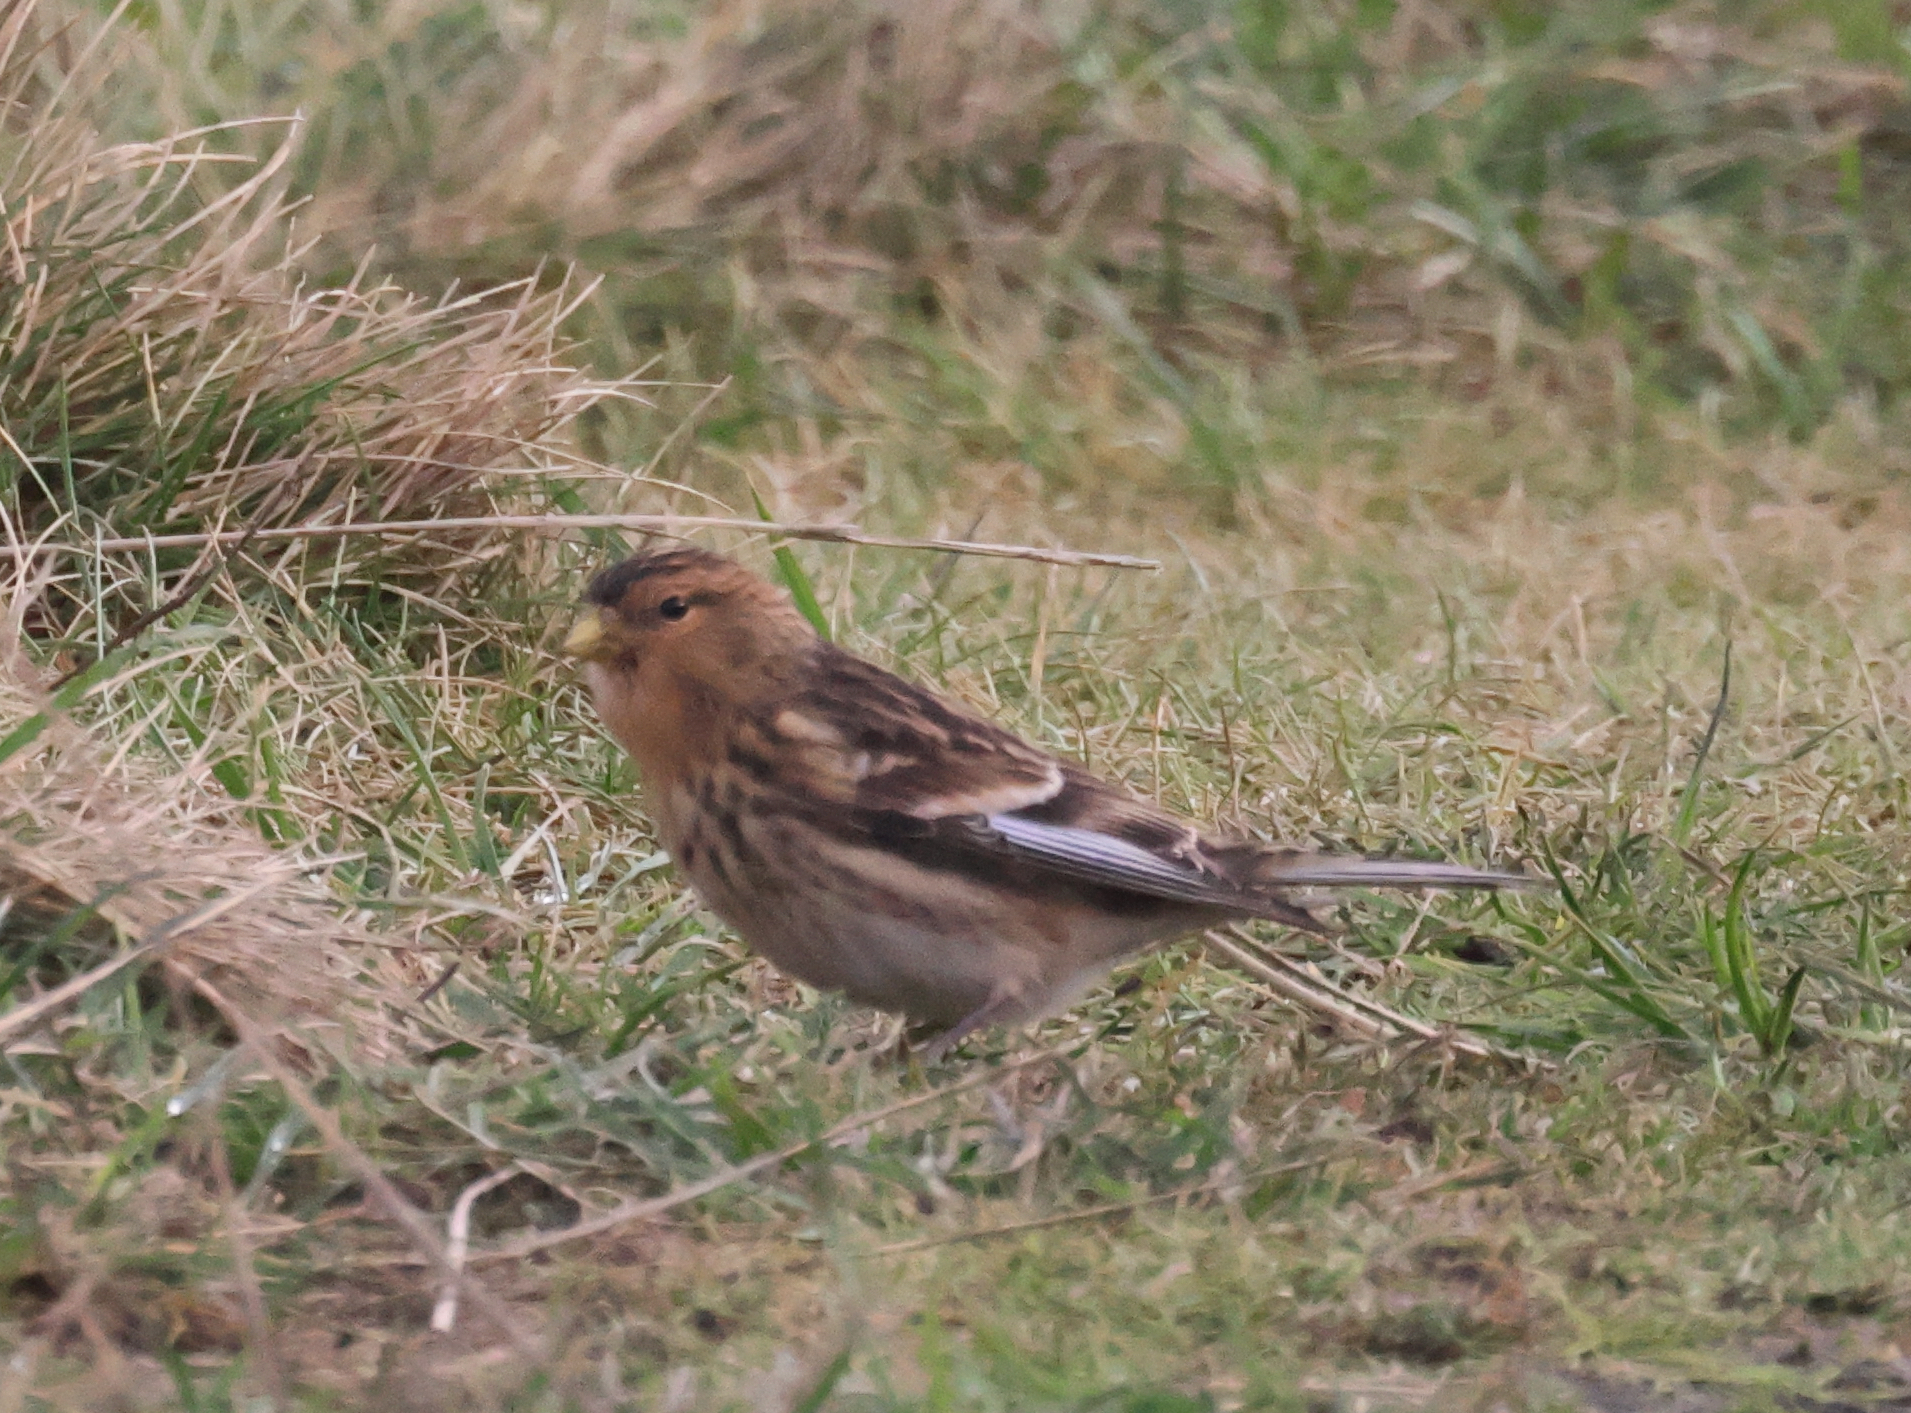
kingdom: Animalia
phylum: Chordata
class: Aves
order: Passeriformes
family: Fringillidae
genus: Linaria
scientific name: Linaria flavirostris
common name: Twite
